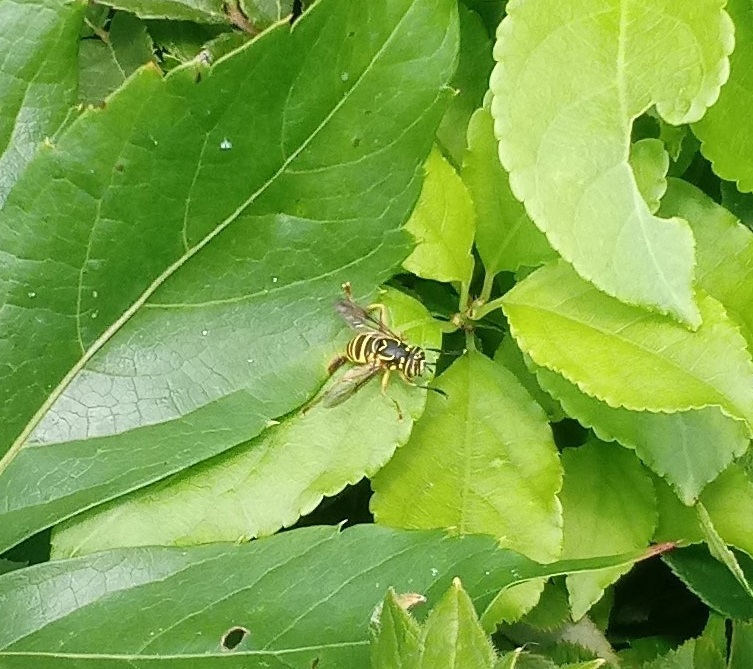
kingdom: Animalia
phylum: Arthropoda
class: Insecta
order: Diptera
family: Syrphidae
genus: Spilomyia
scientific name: Spilomyia longicornis
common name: Eastern hornet fly
